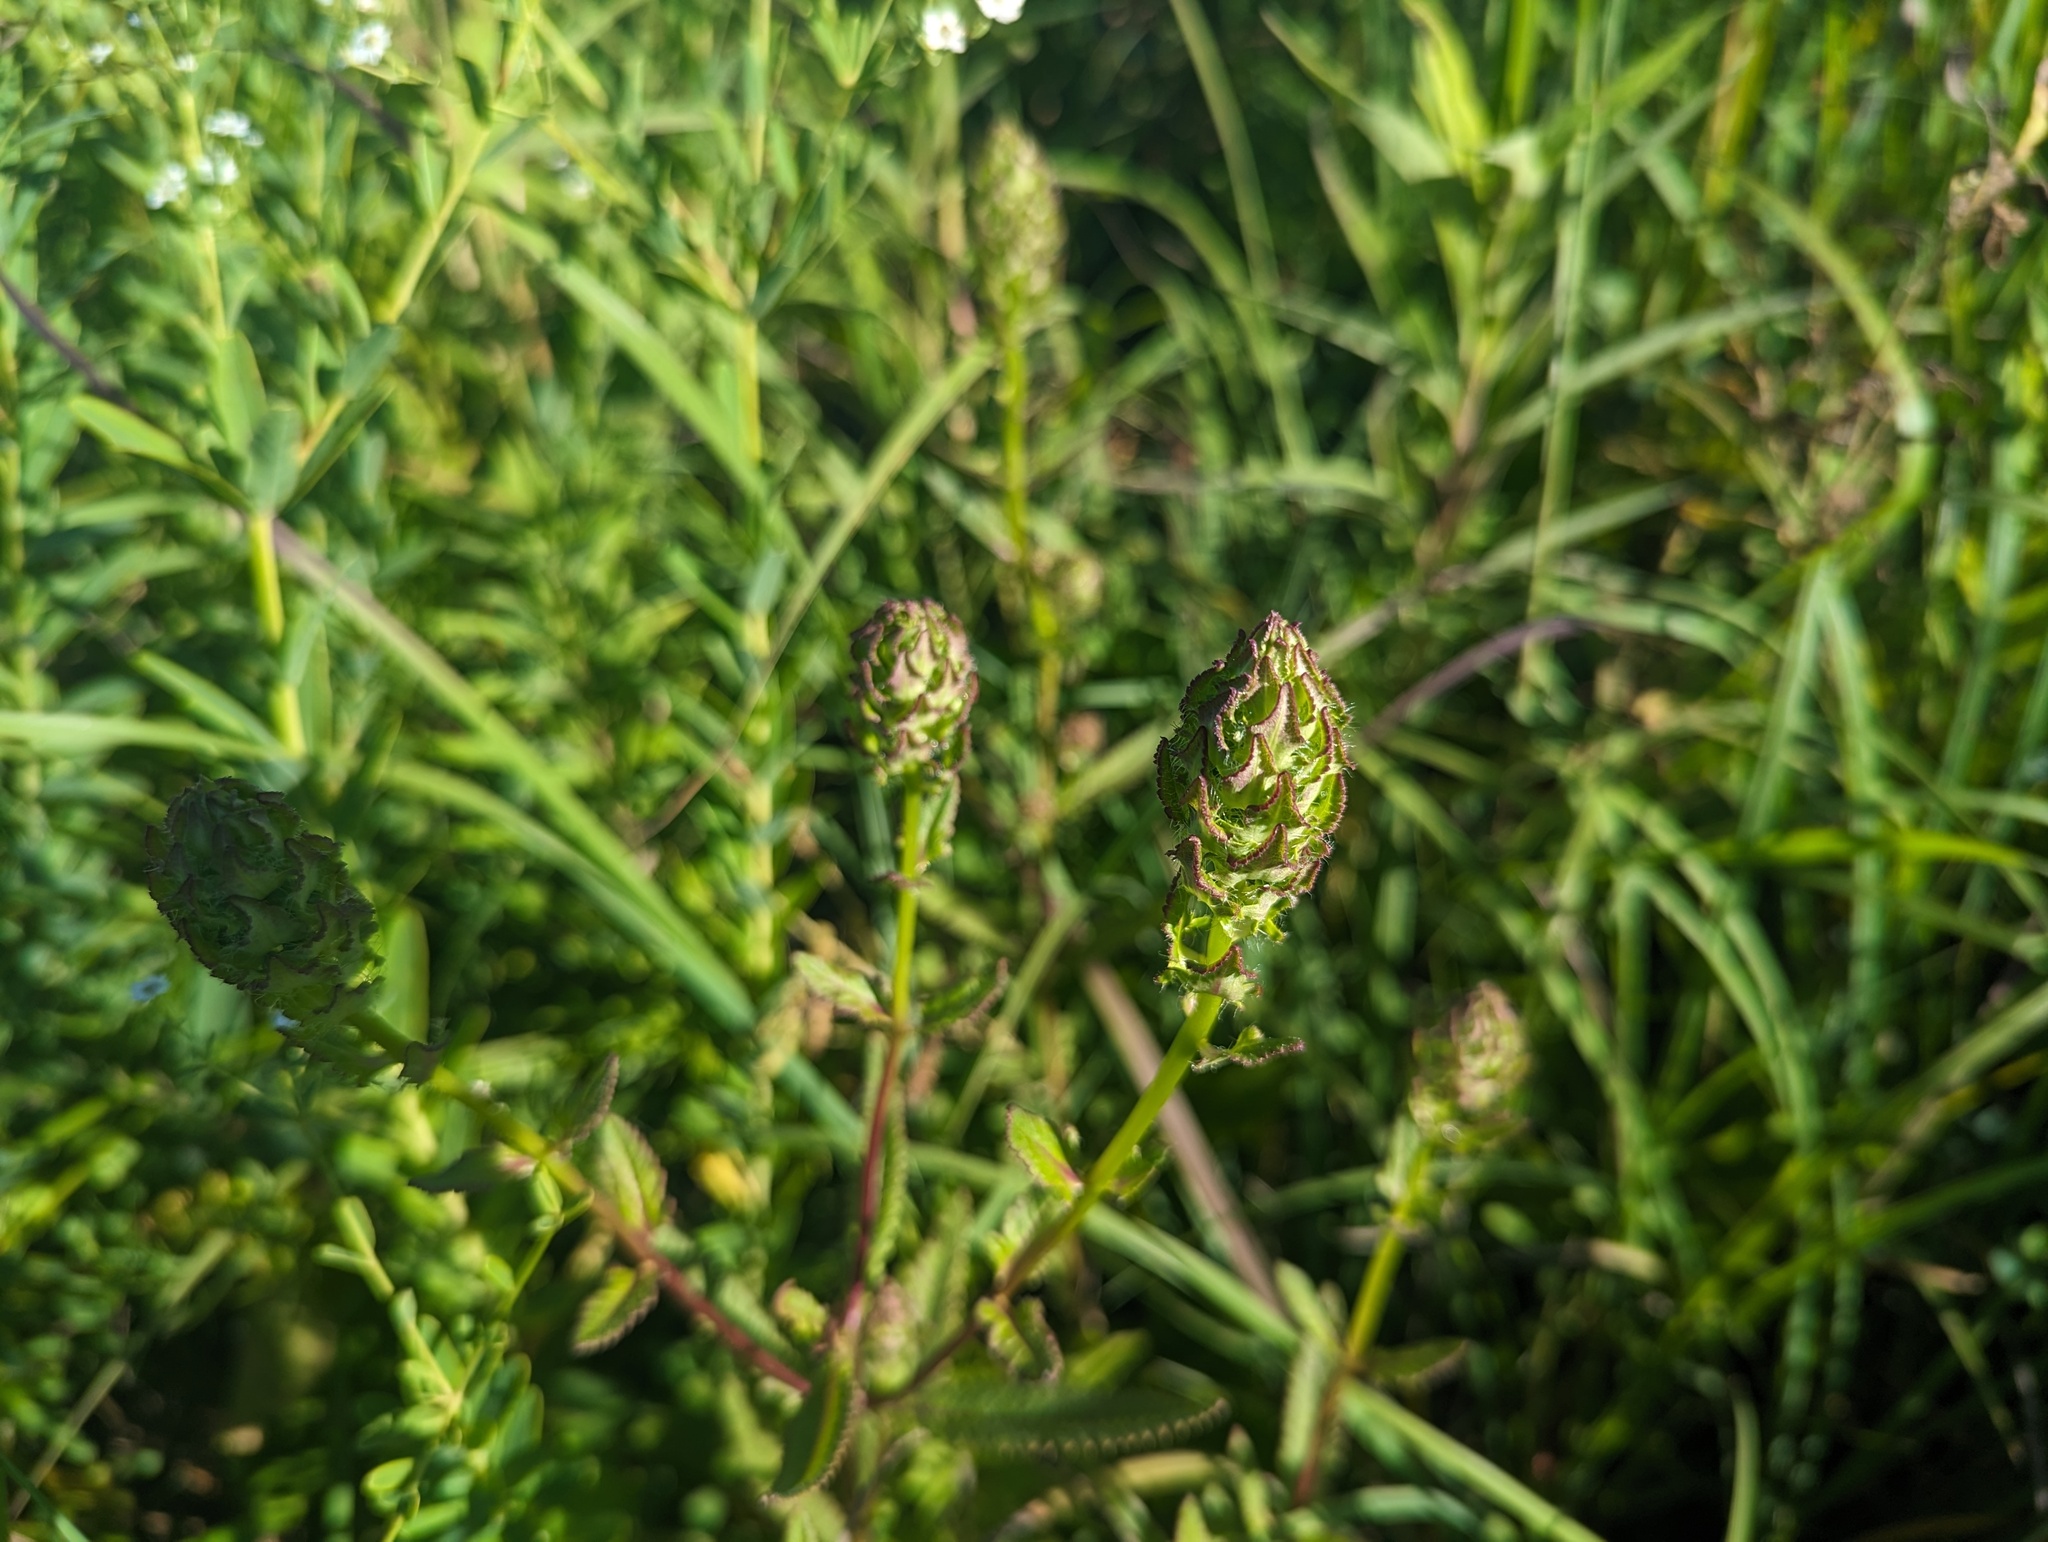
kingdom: Plantae
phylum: Tracheophyta
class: Magnoliopsida
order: Lamiales
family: Orobanchaceae
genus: Pedicularis
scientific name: Pedicularis lanceolata
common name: Swamp lousewort
